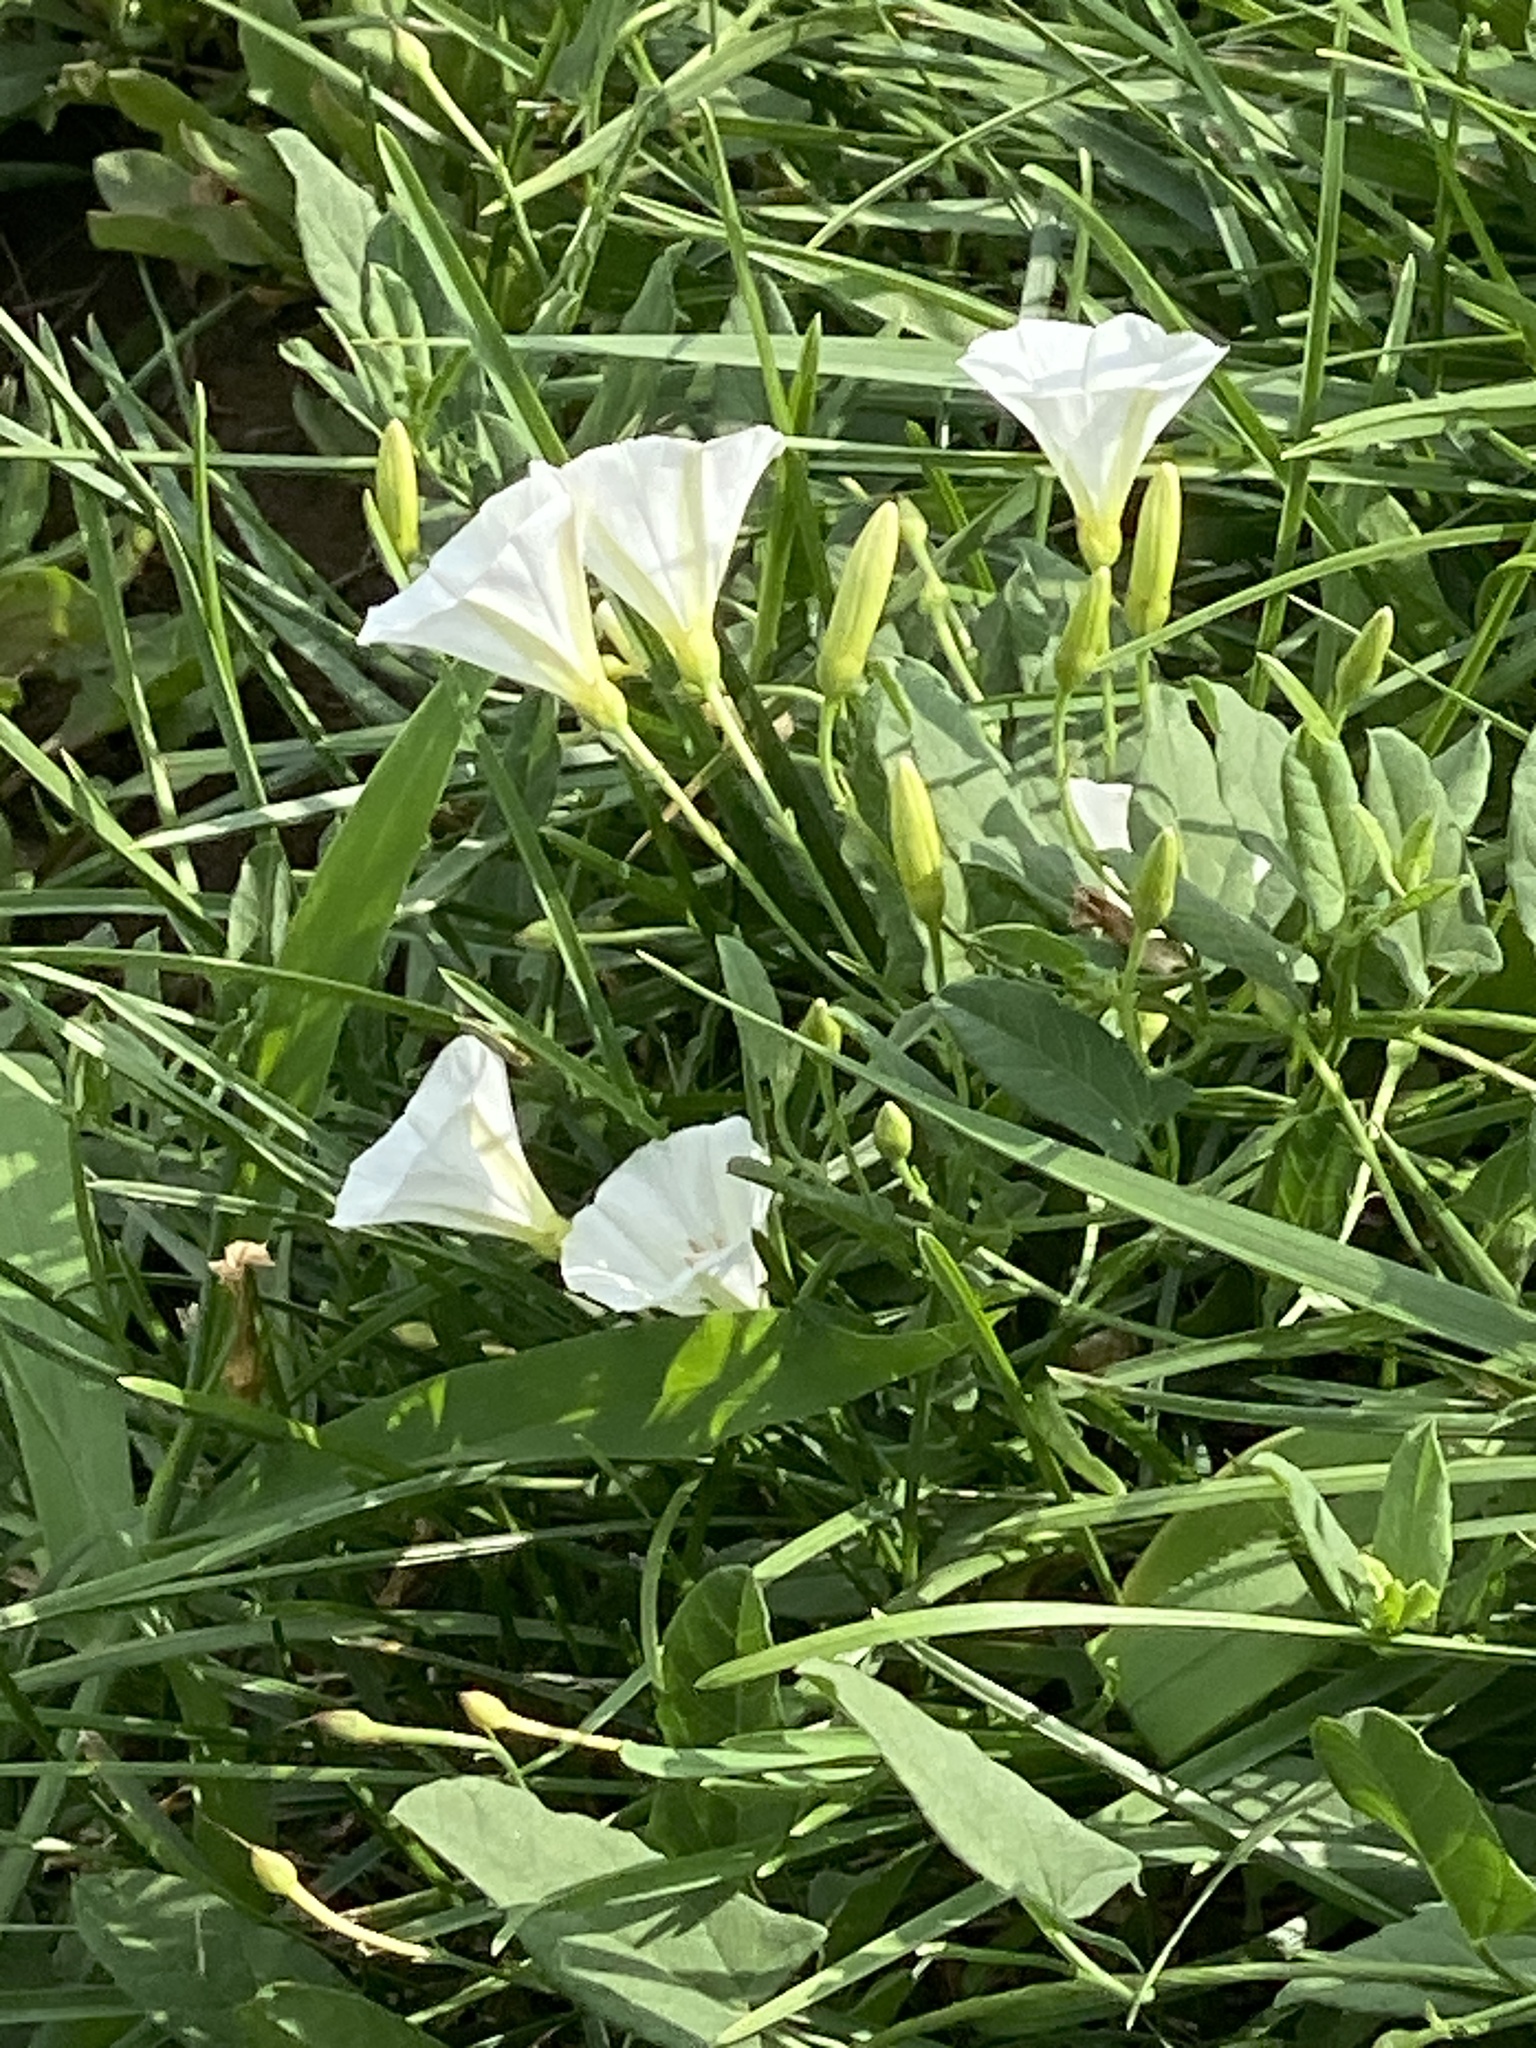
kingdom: Plantae
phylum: Tracheophyta
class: Magnoliopsida
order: Solanales
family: Convolvulaceae
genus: Convolvulus
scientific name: Convolvulus arvensis
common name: Field bindweed
